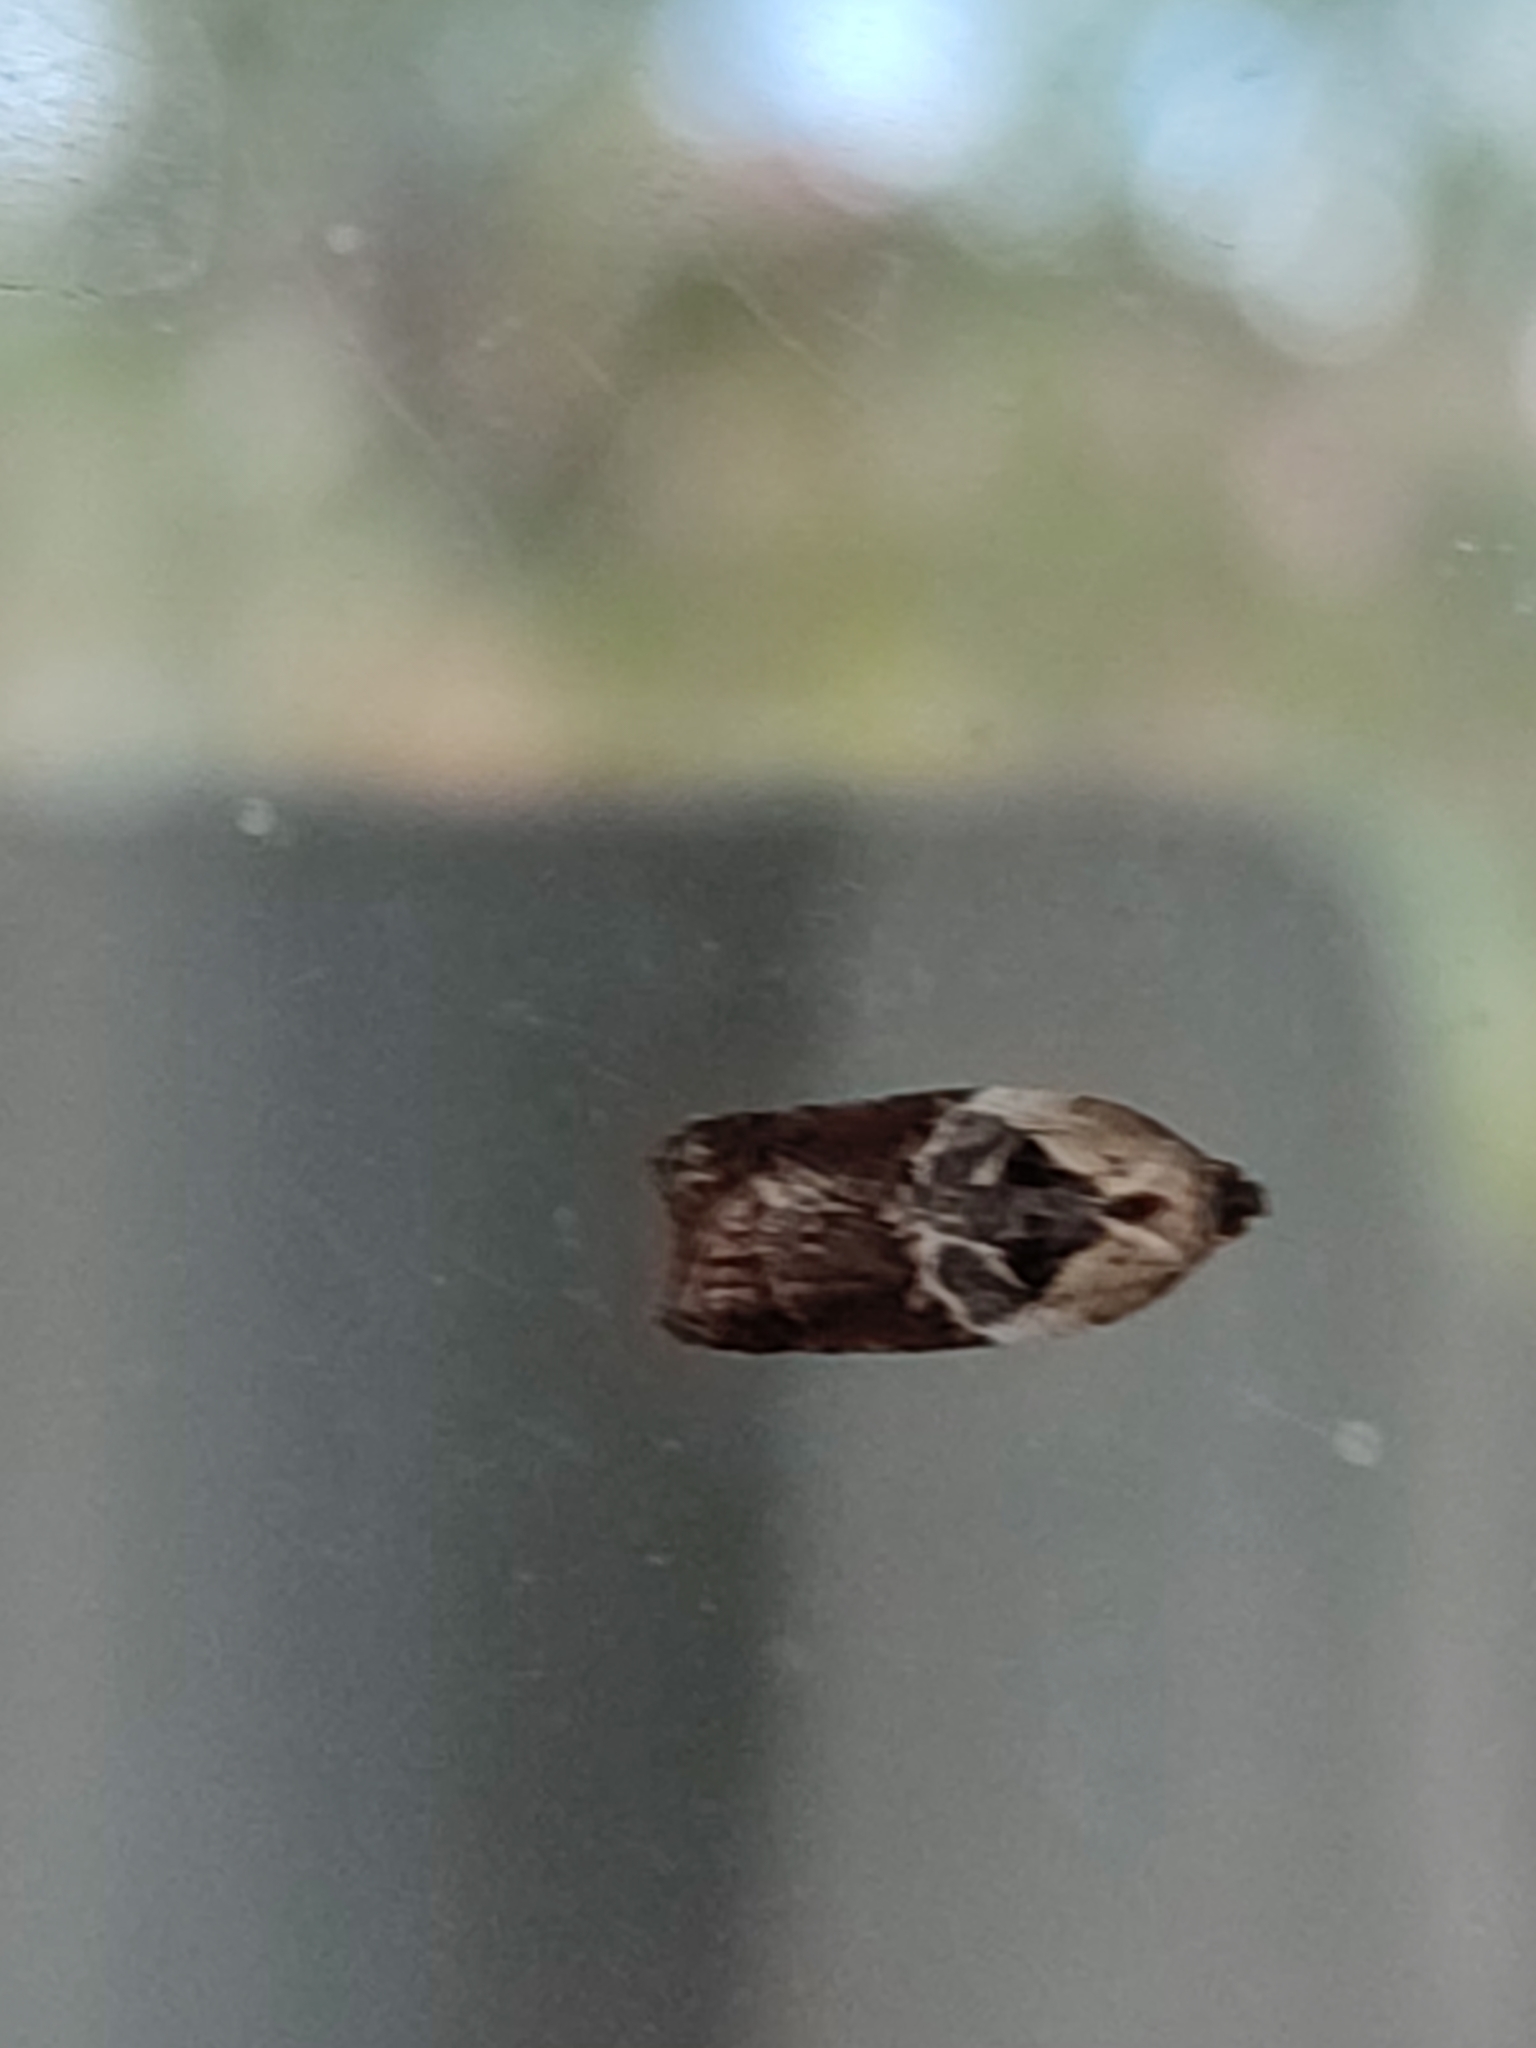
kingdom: Animalia
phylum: Arthropoda
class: Insecta
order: Lepidoptera
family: Tortricidae
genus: Acleris
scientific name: Acleris variegana
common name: Garden rose tortrix
